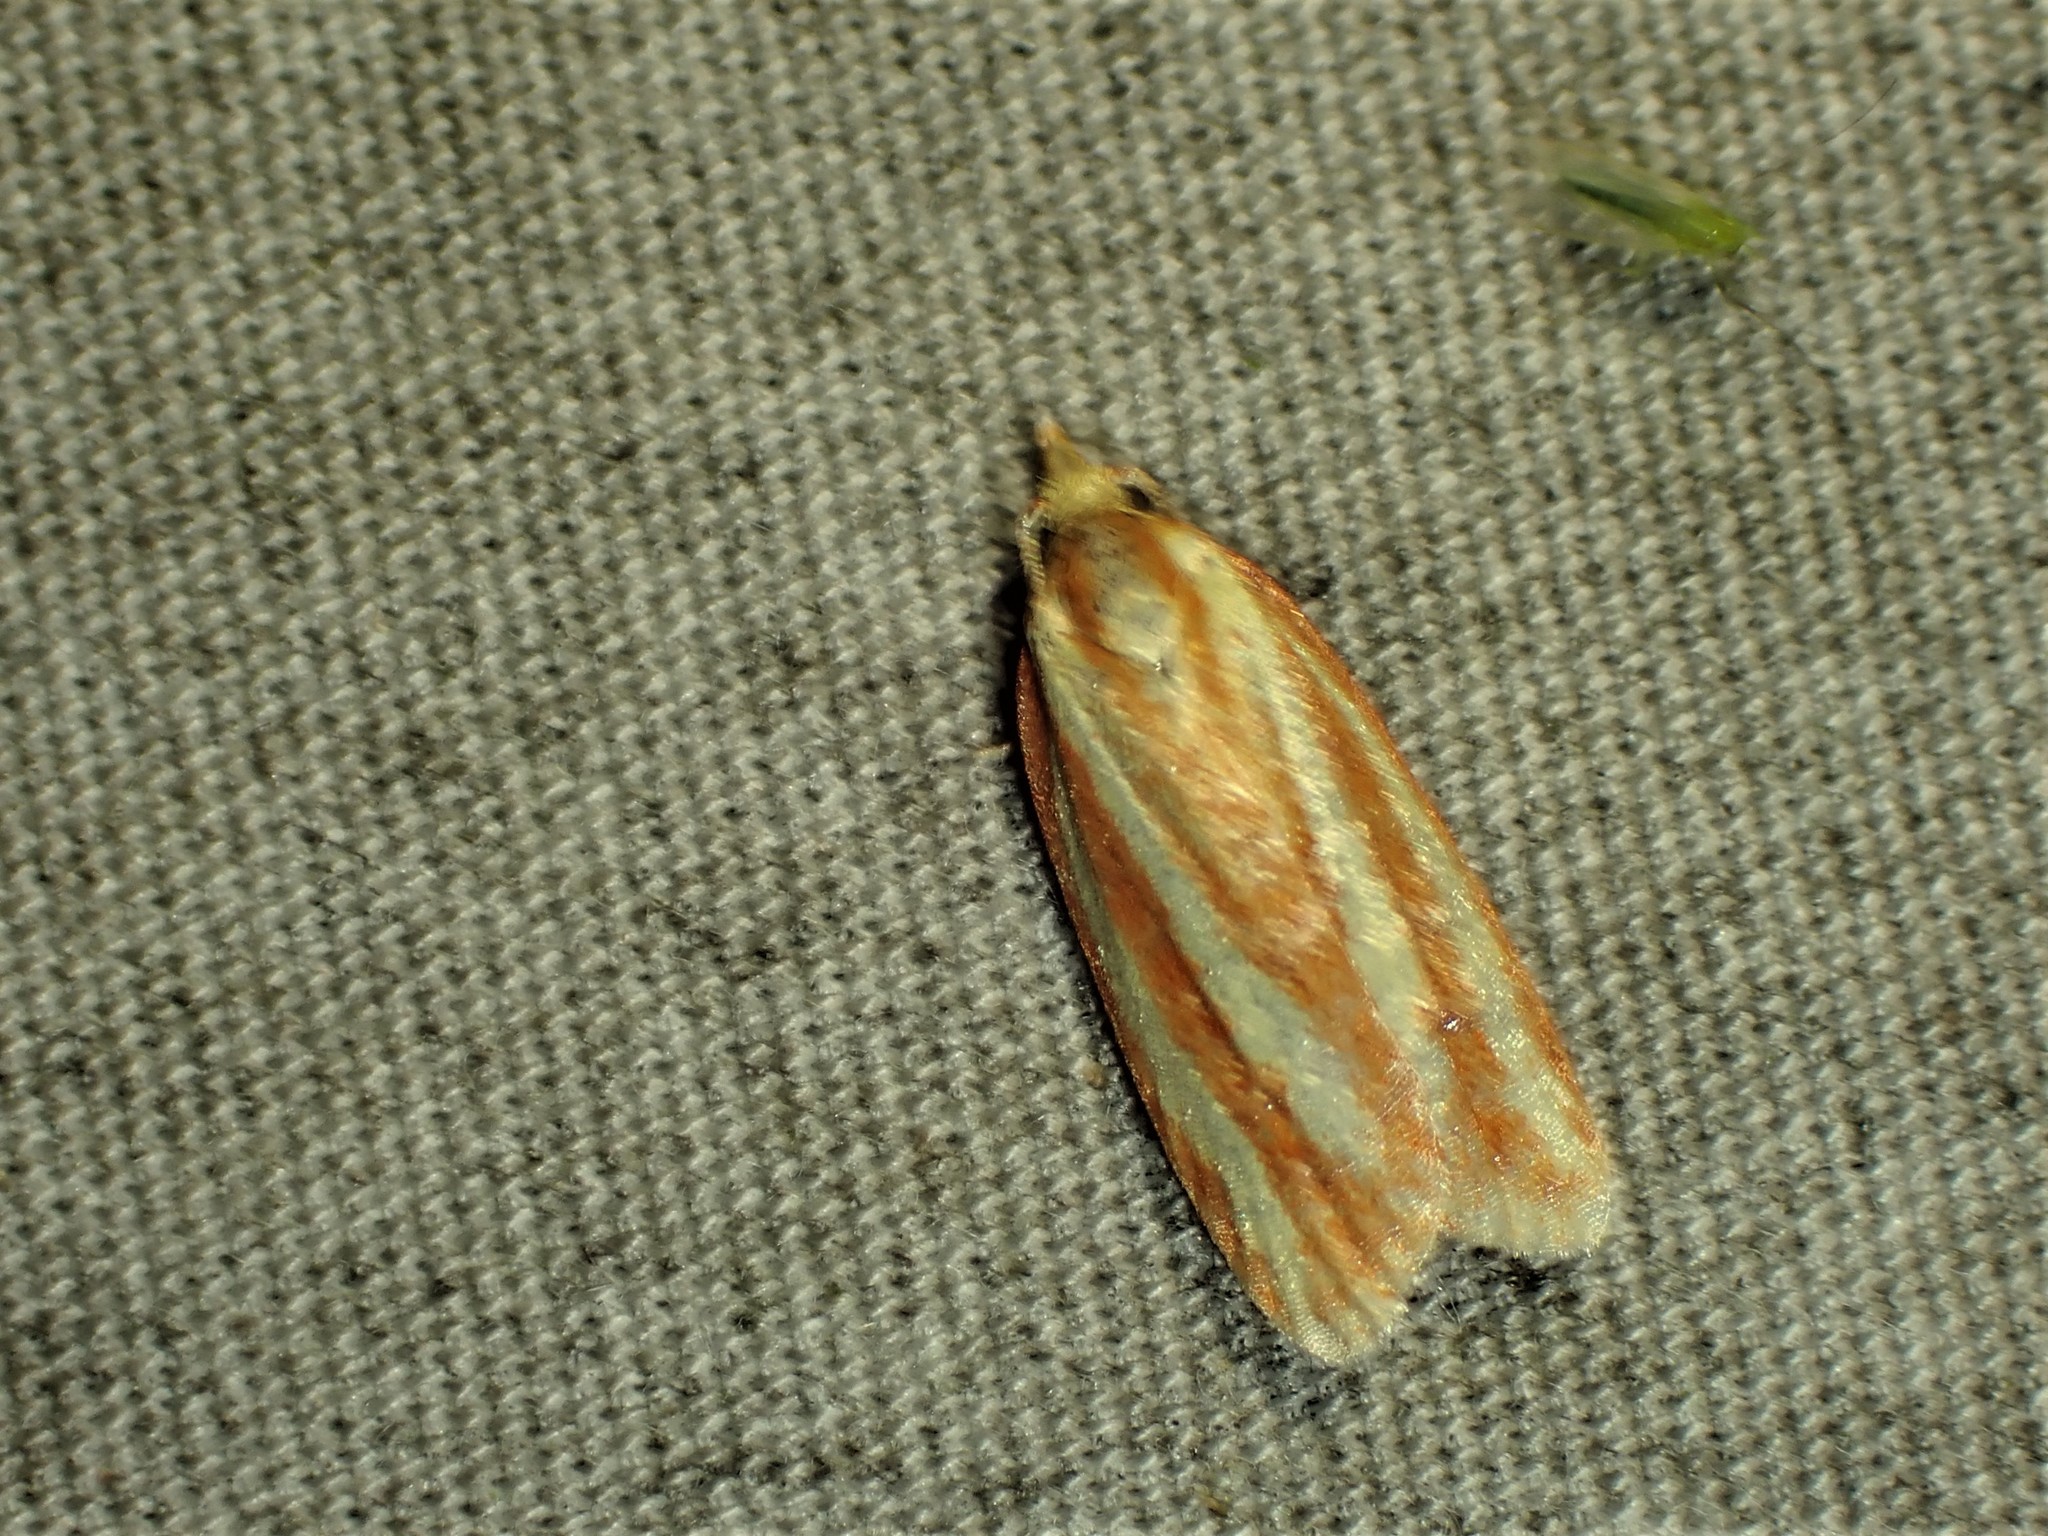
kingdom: Animalia
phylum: Arthropoda
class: Insecta
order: Lepidoptera
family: Tortricidae
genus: Sparganothis
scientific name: Sparganothis tristriata
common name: Three-streaked sparganothis moth
